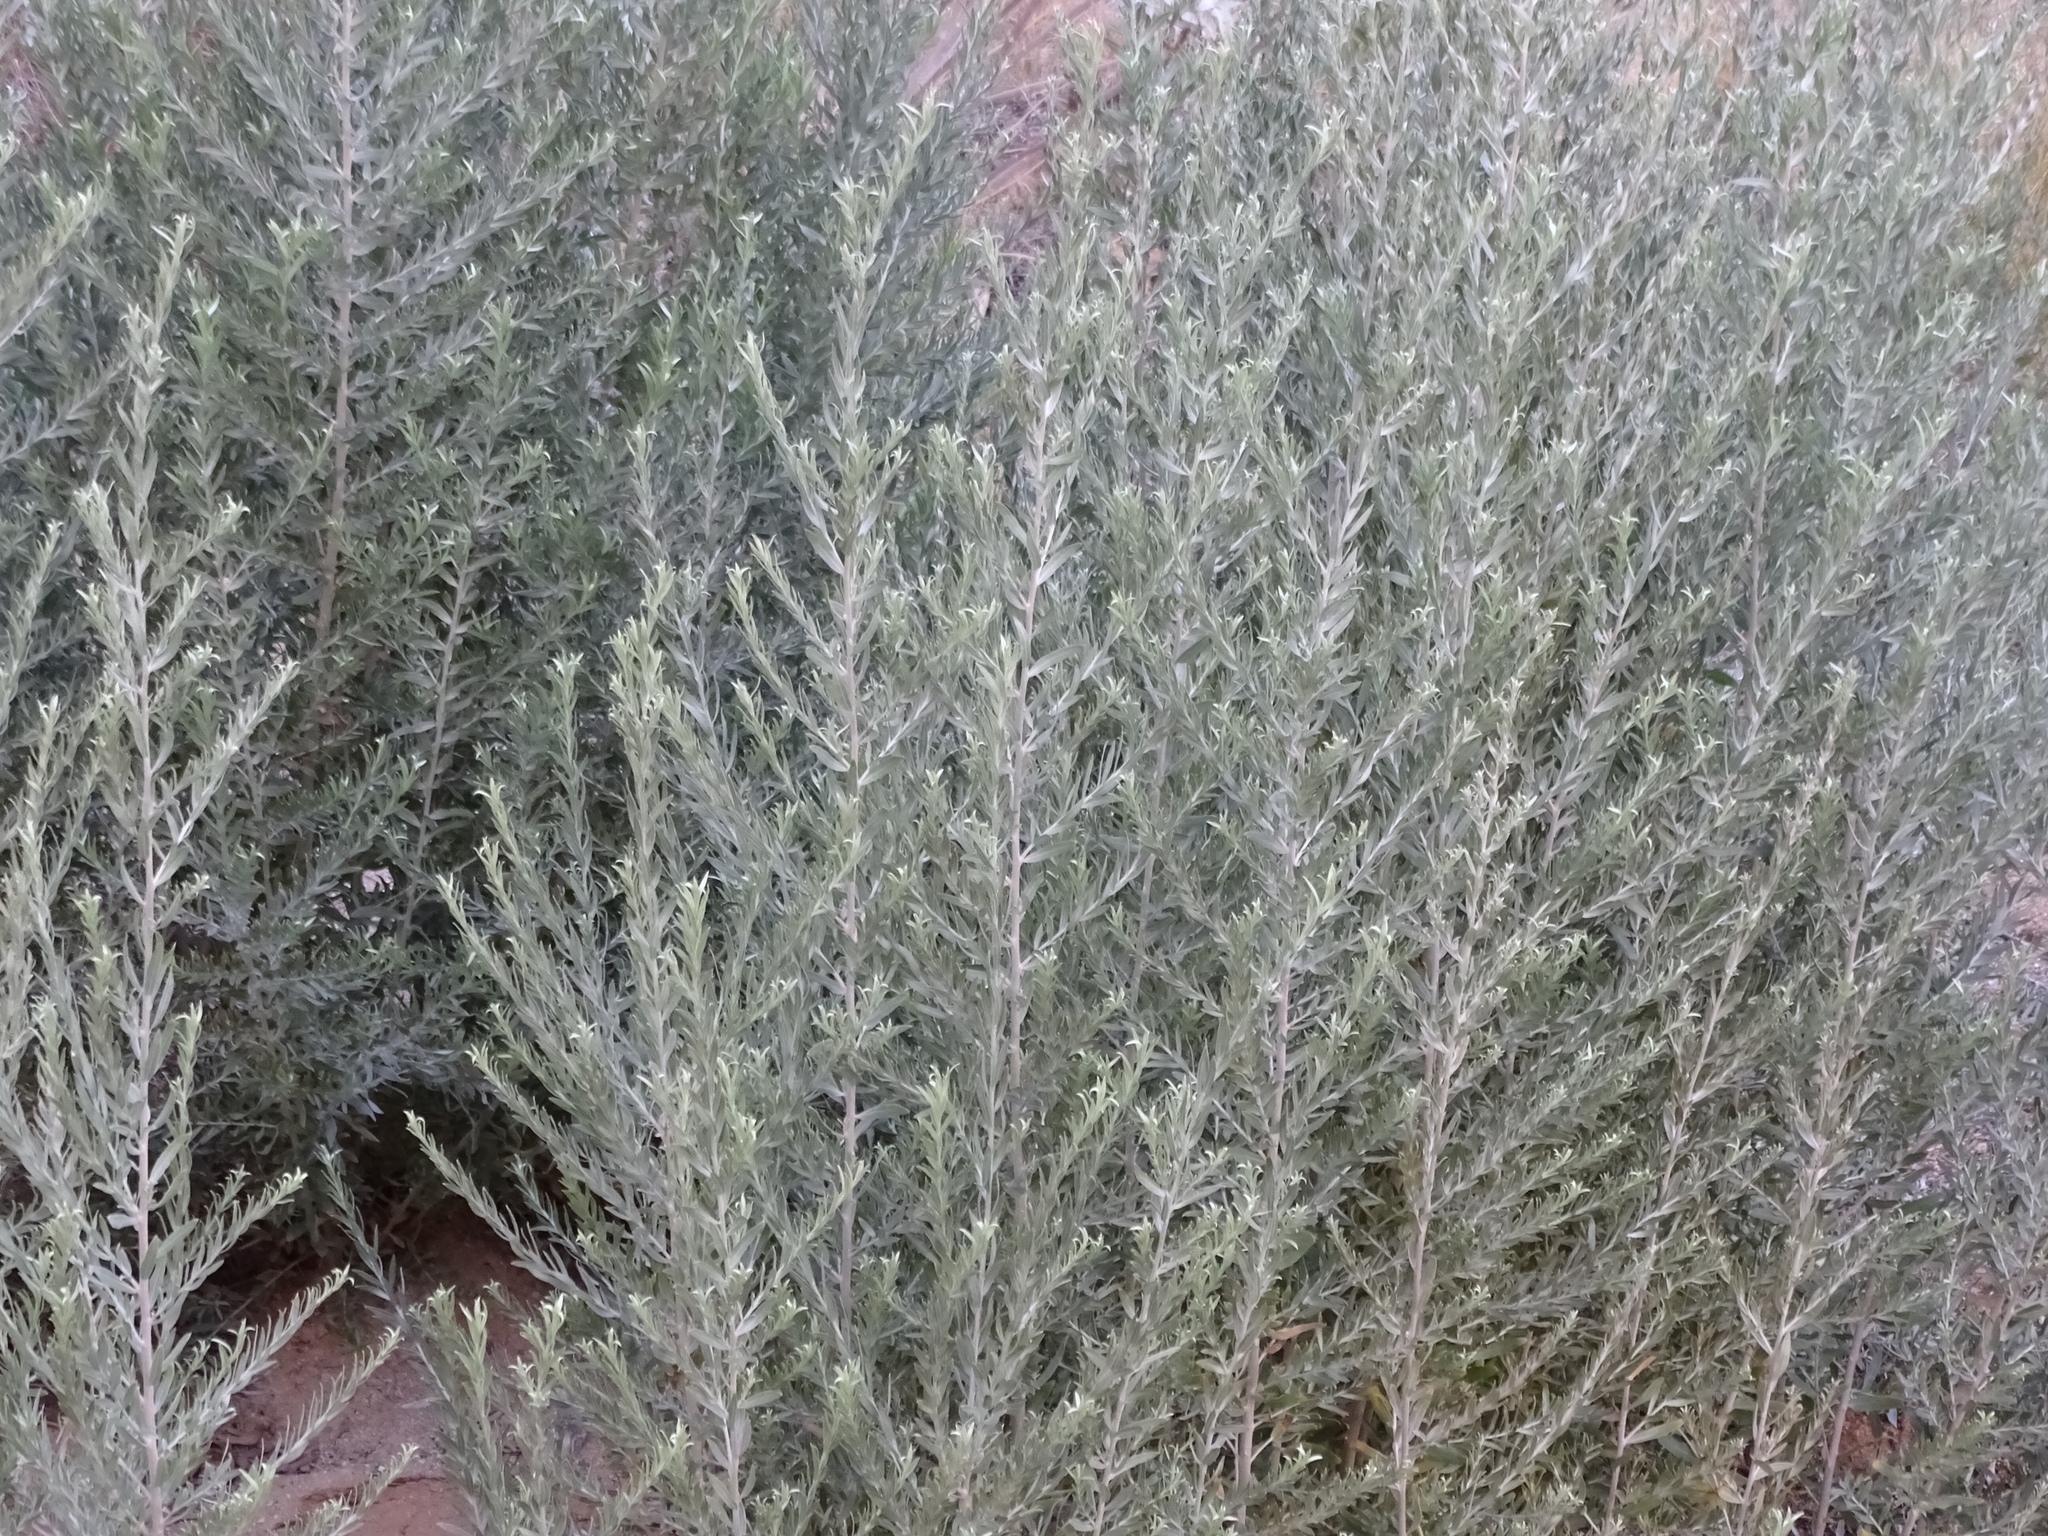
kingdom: Plantae
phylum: Tracheophyta
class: Magnoliopsida
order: Asterales
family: Asteraceae
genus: Pluchea
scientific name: Pluchea sericea
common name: Arrow-weed
